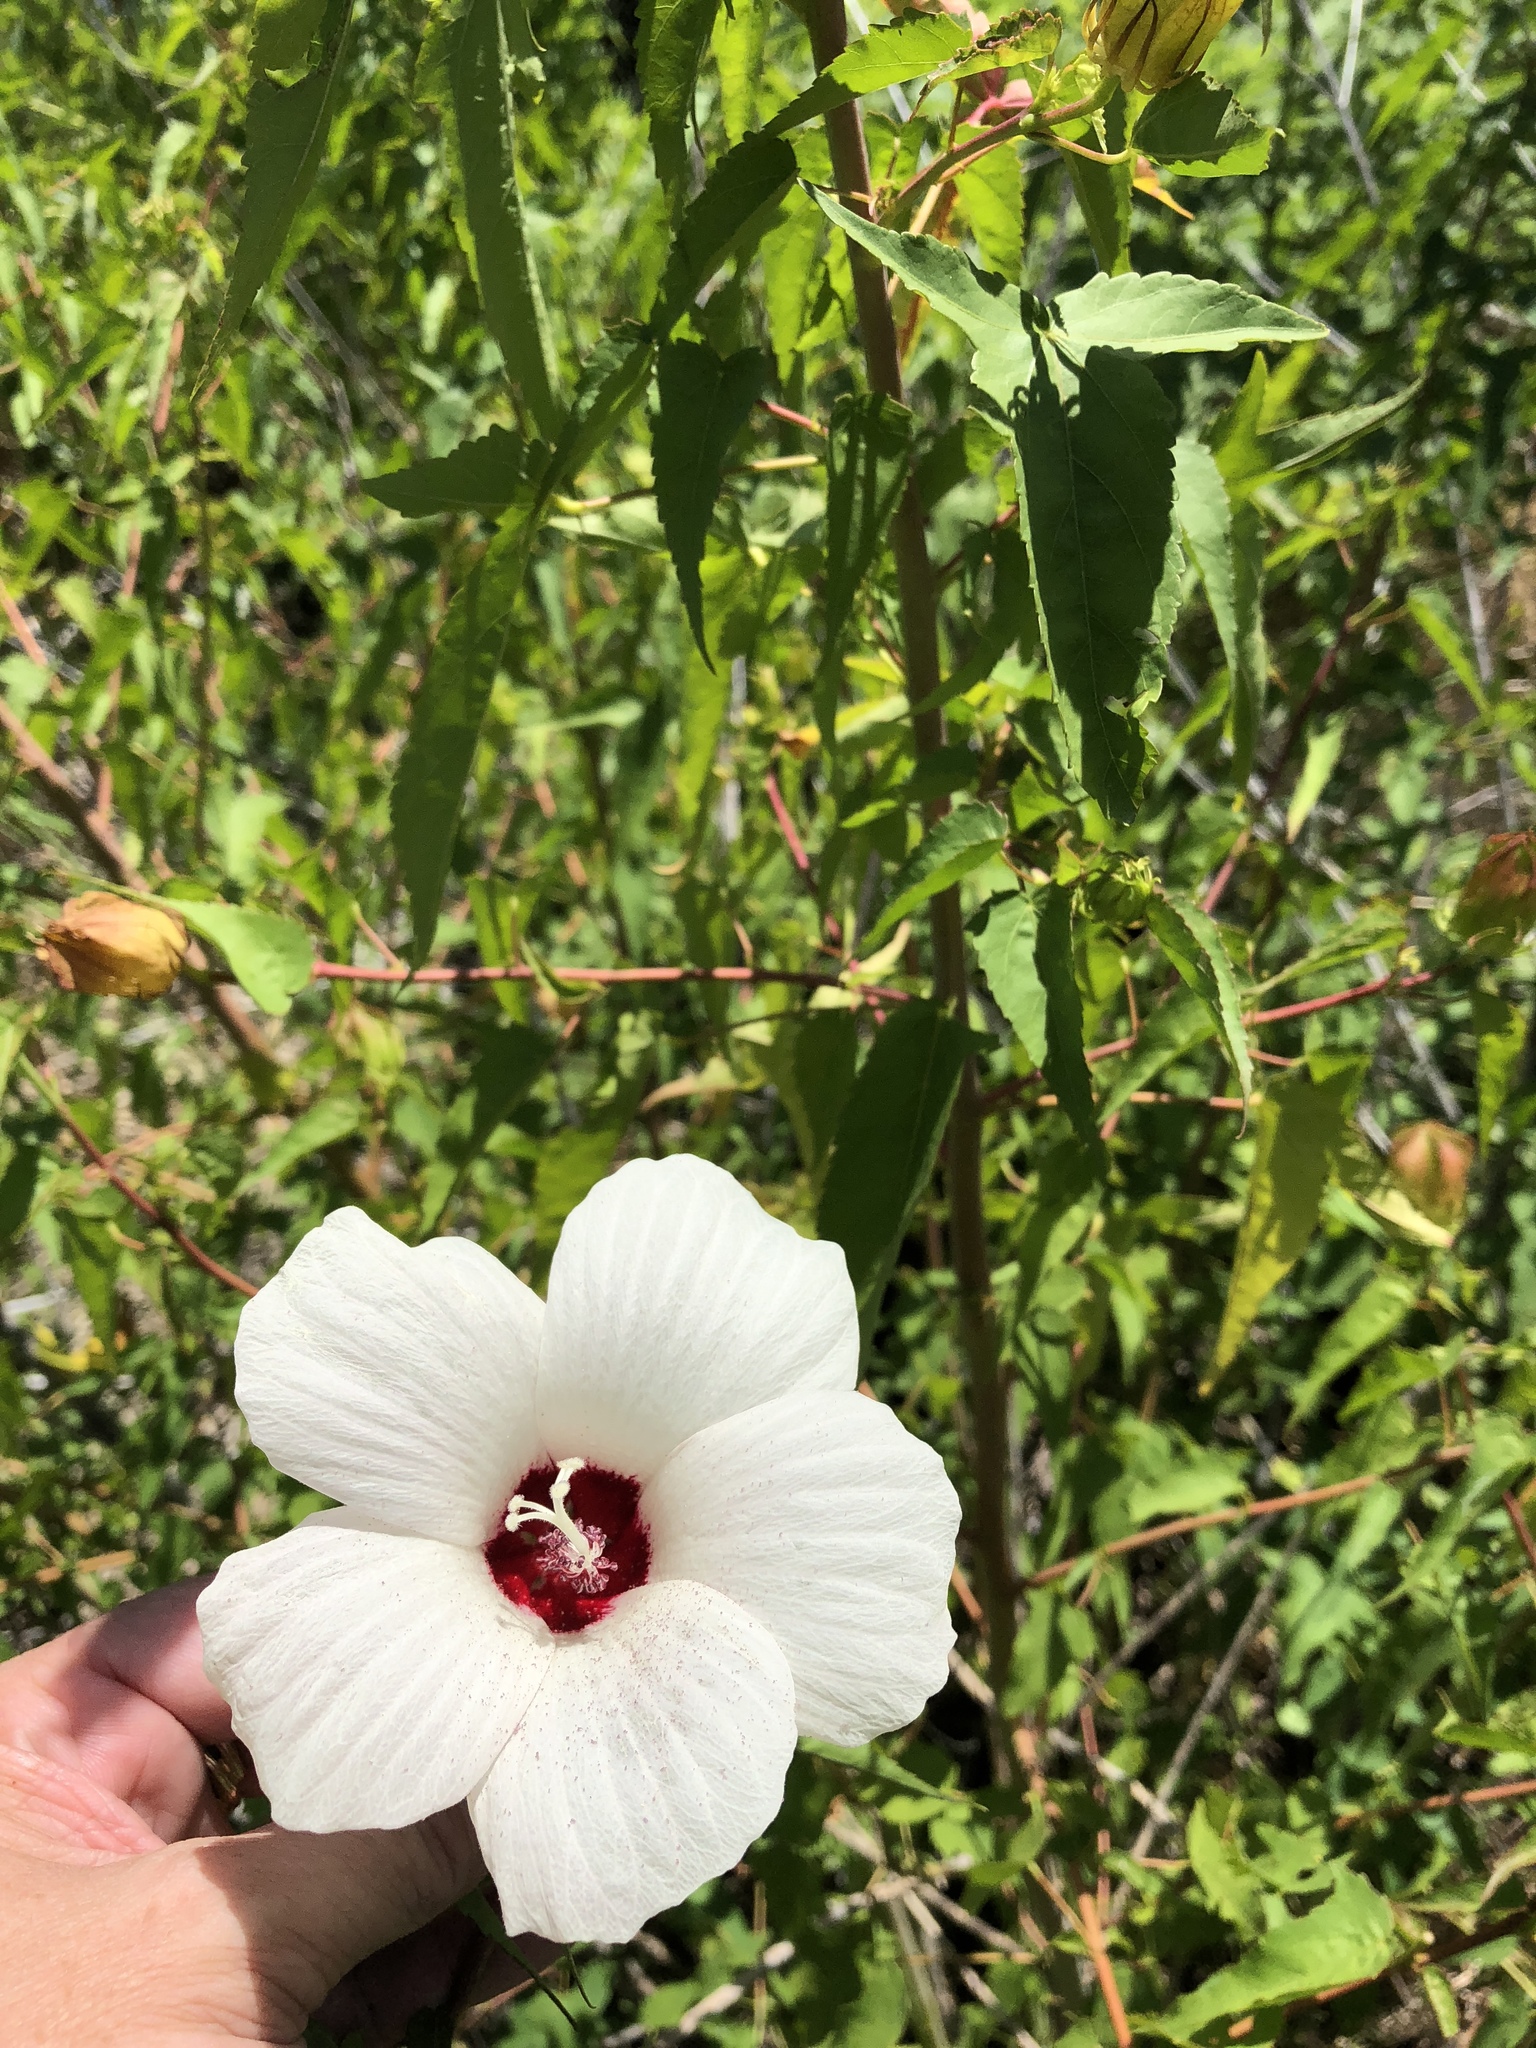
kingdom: Plantae
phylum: Tracheophyta
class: Magnoliopsida
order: Malvales
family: Malvaceae
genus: Hibiscus
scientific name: Hibiscus laevis
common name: Scarlet rose-mallow
